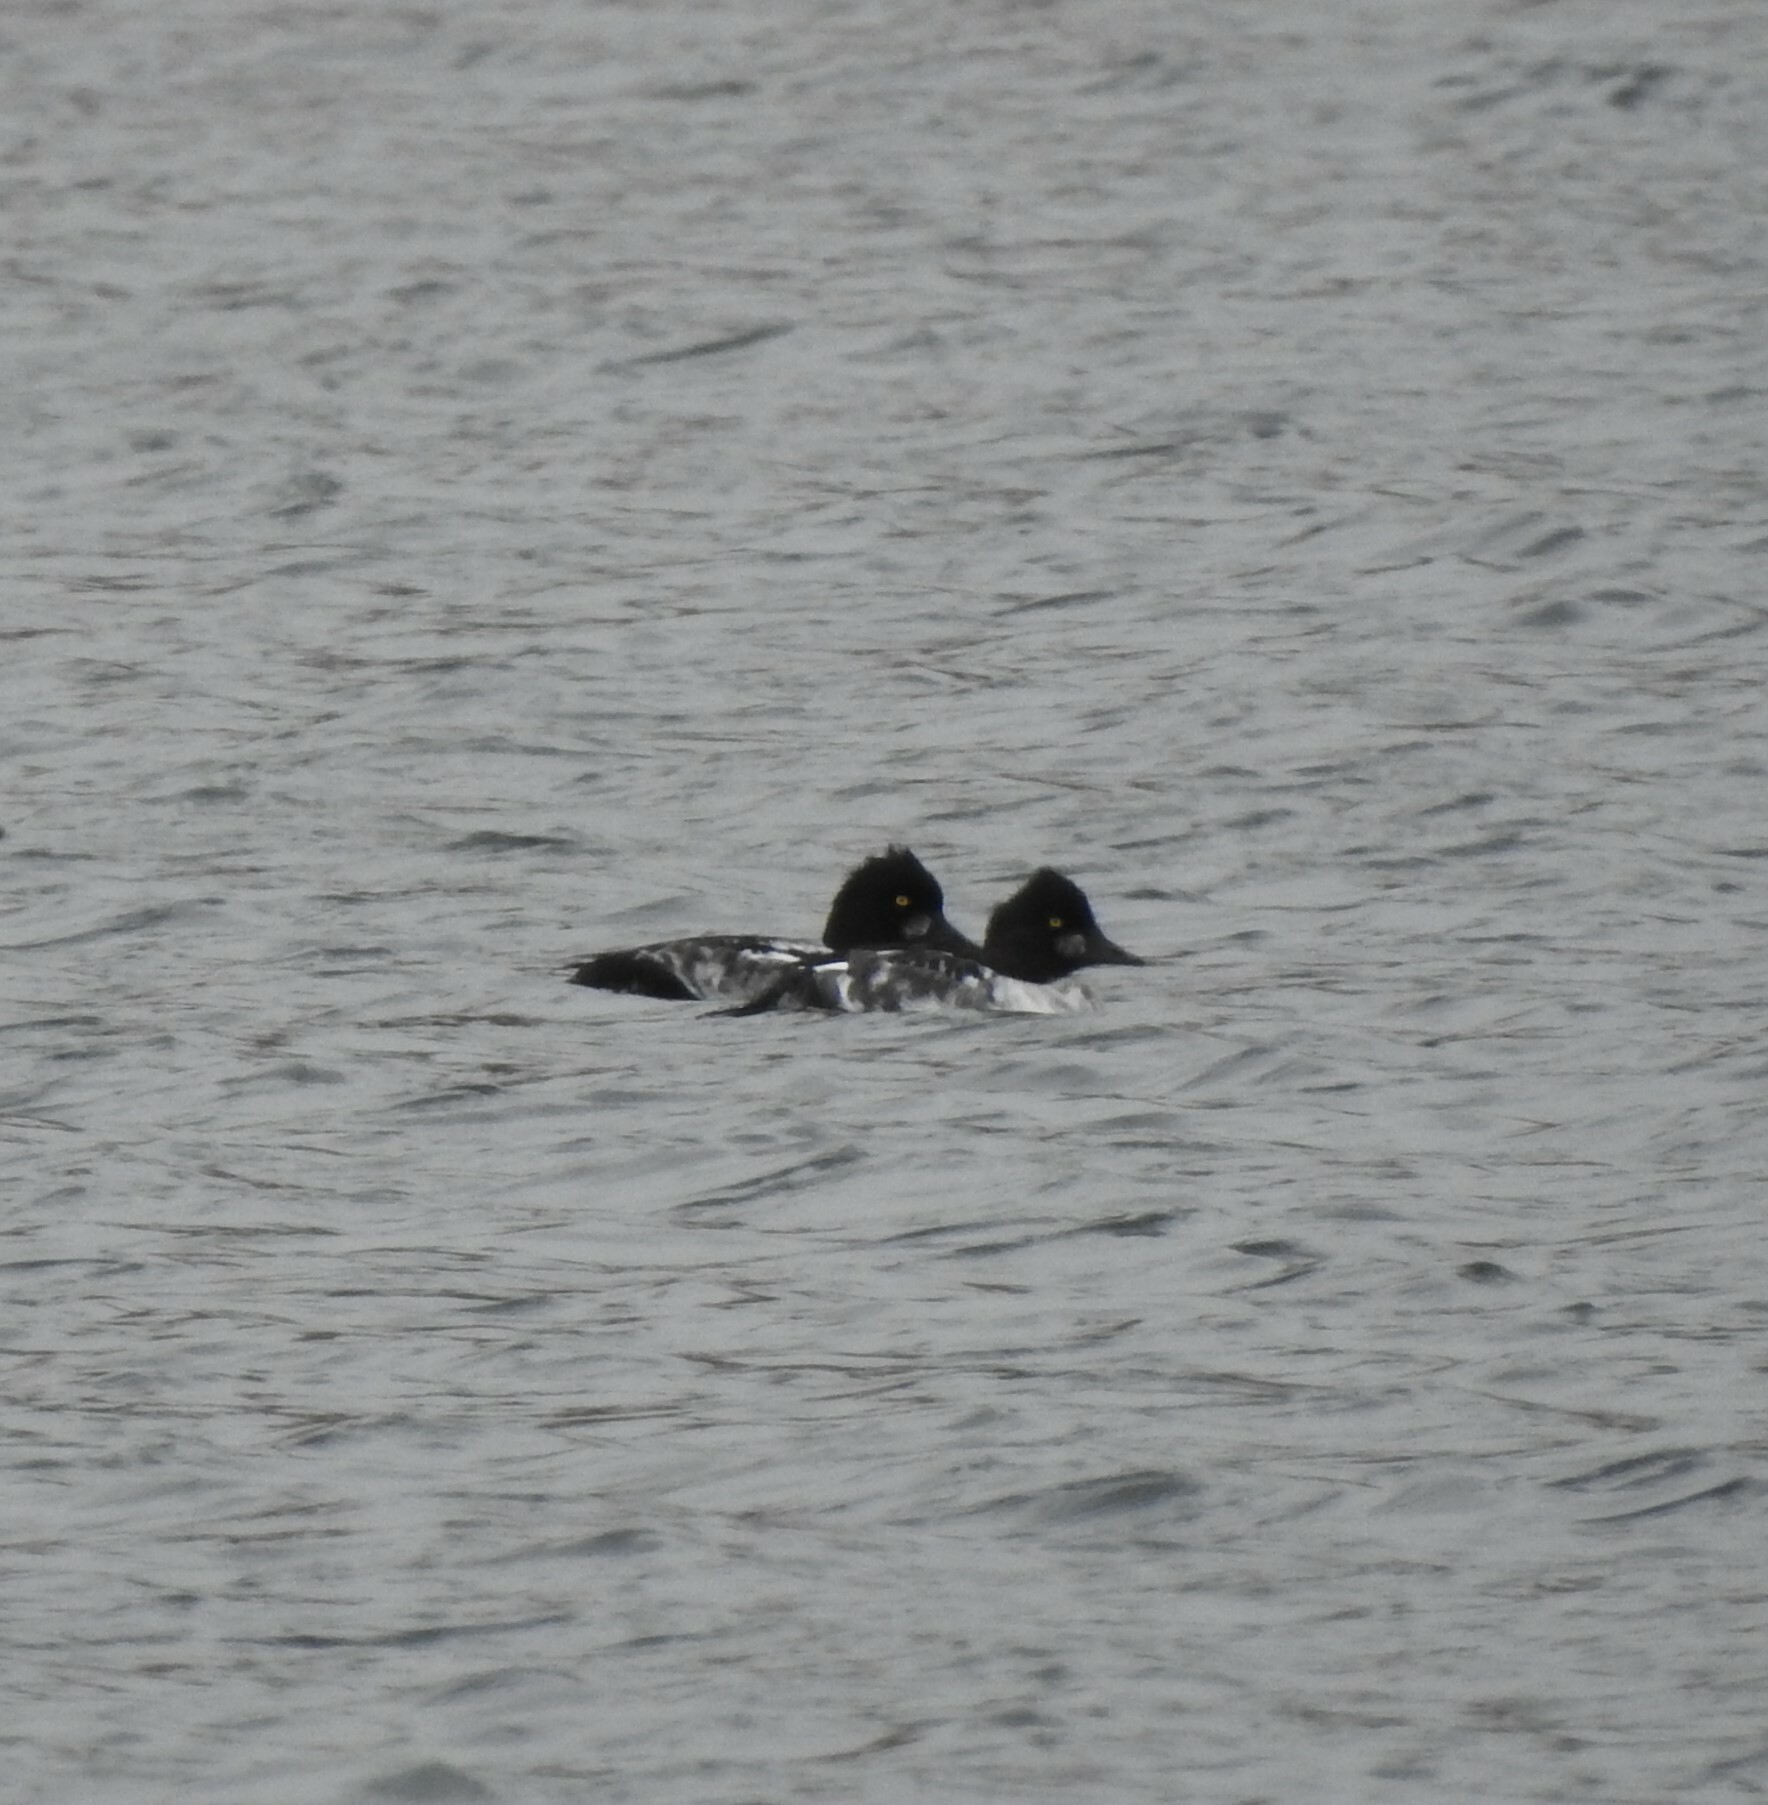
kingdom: Animalia
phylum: Chordata
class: Aves
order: Anseriformes
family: Anatidae
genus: Bucephala
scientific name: Bucephala clangula
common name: Common goldeneye
